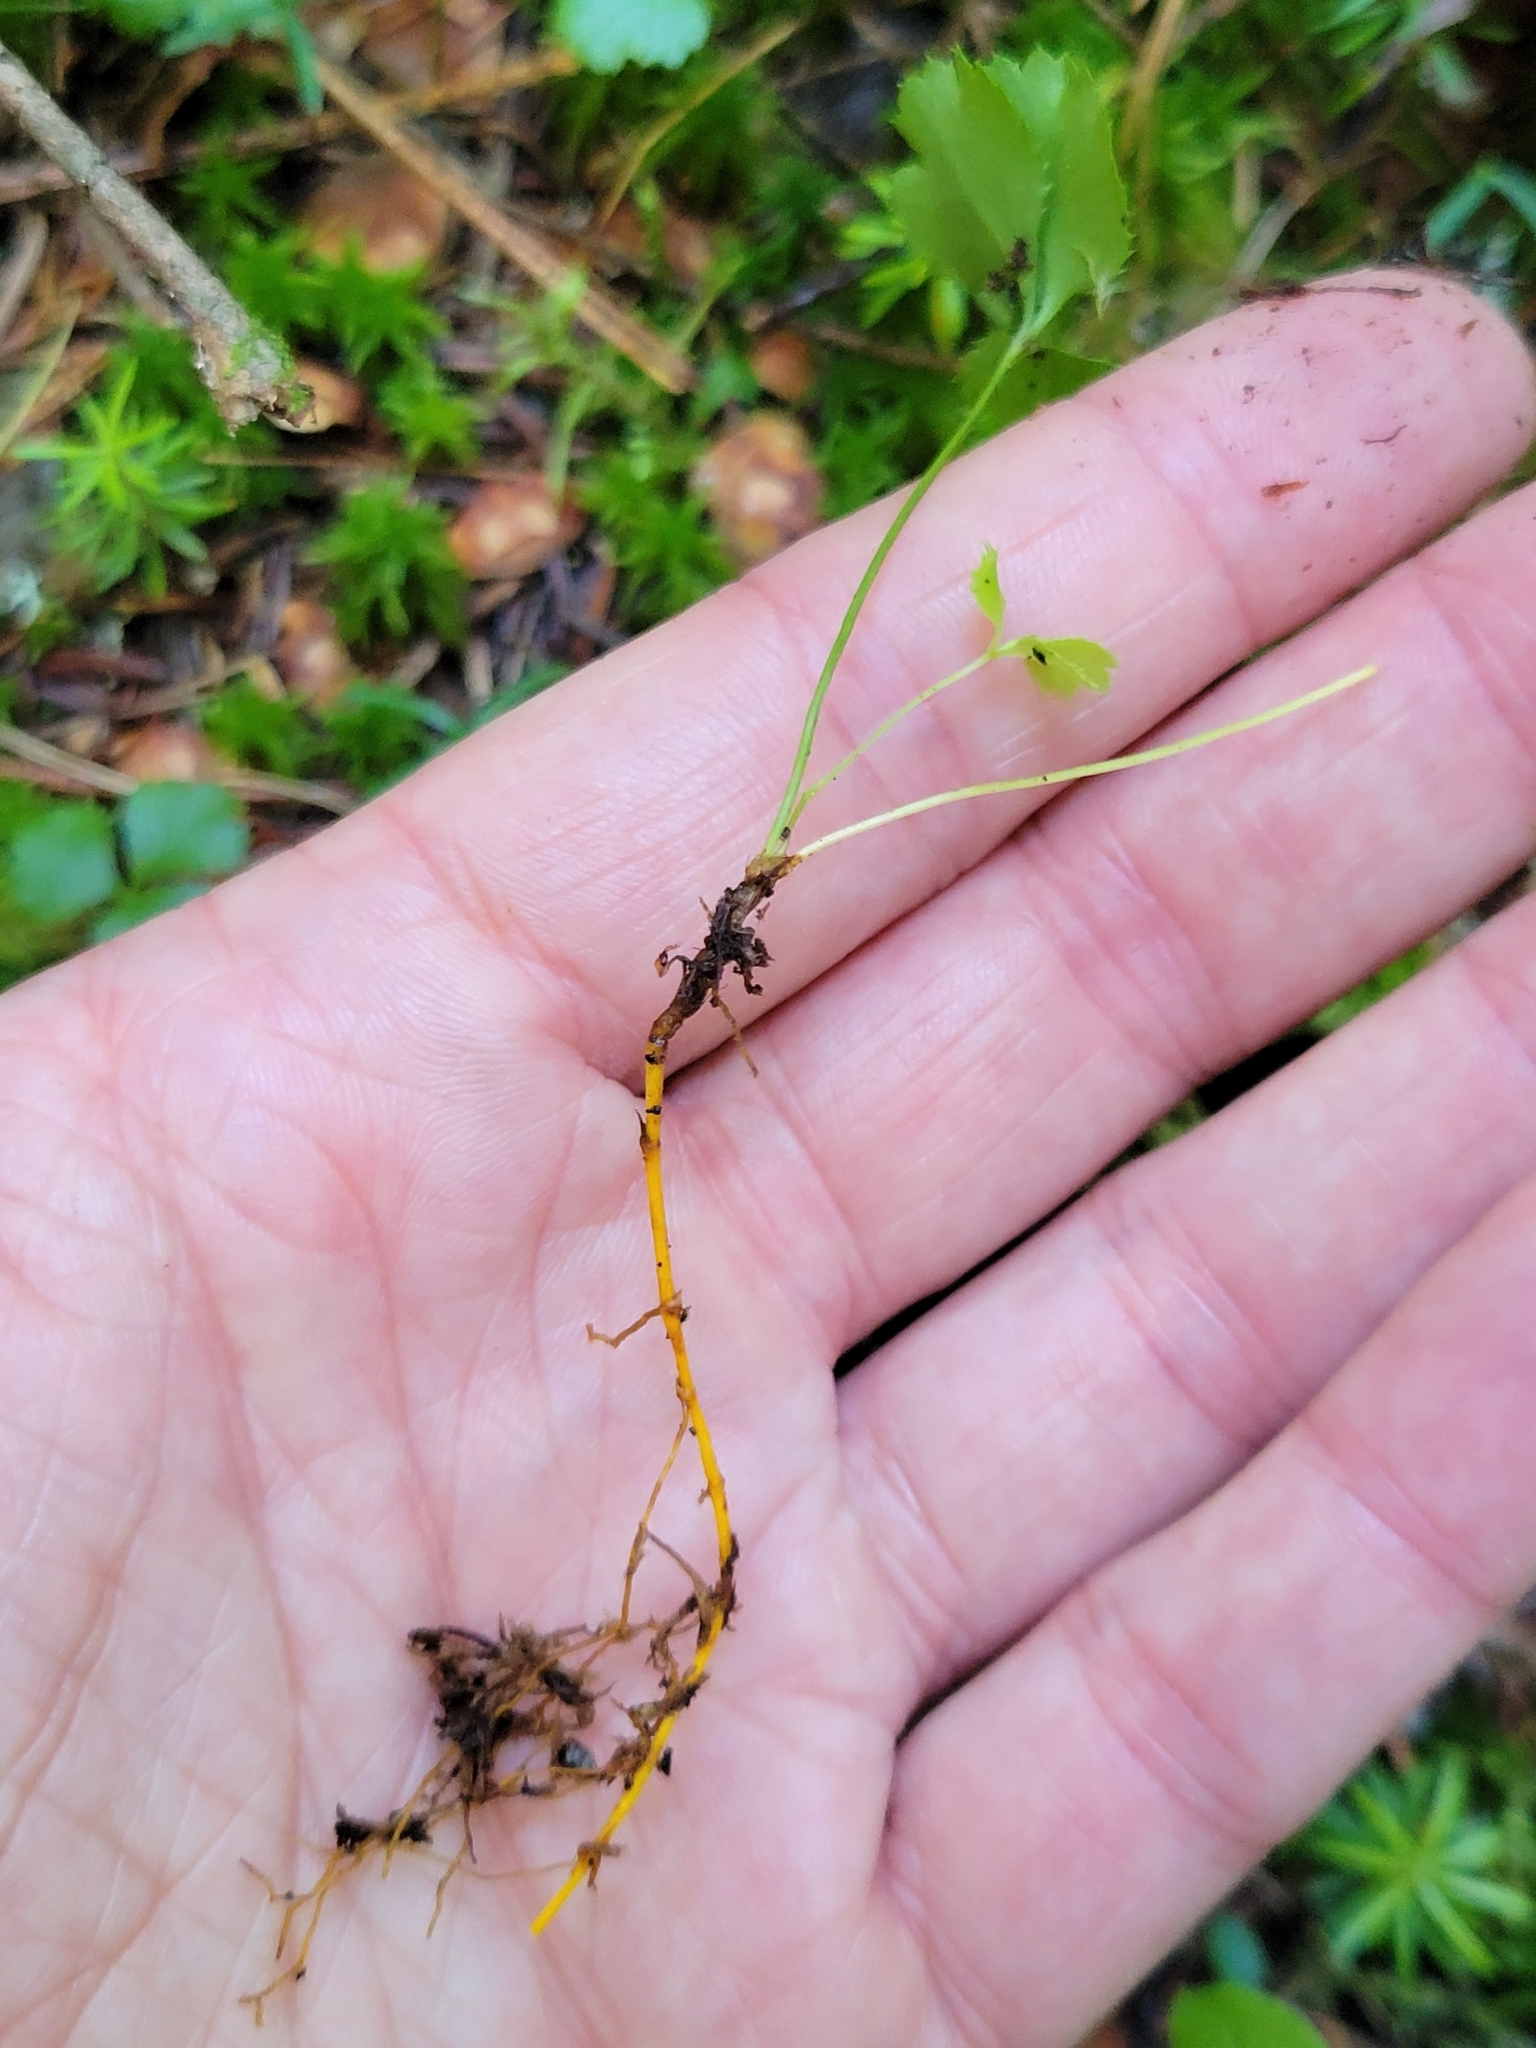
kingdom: Plantae
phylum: Tracheophyta
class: Magnoliopsida
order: Ranunculales
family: Ranunculaceae
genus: Coptis
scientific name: Coptis trifolia
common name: Canker-root
